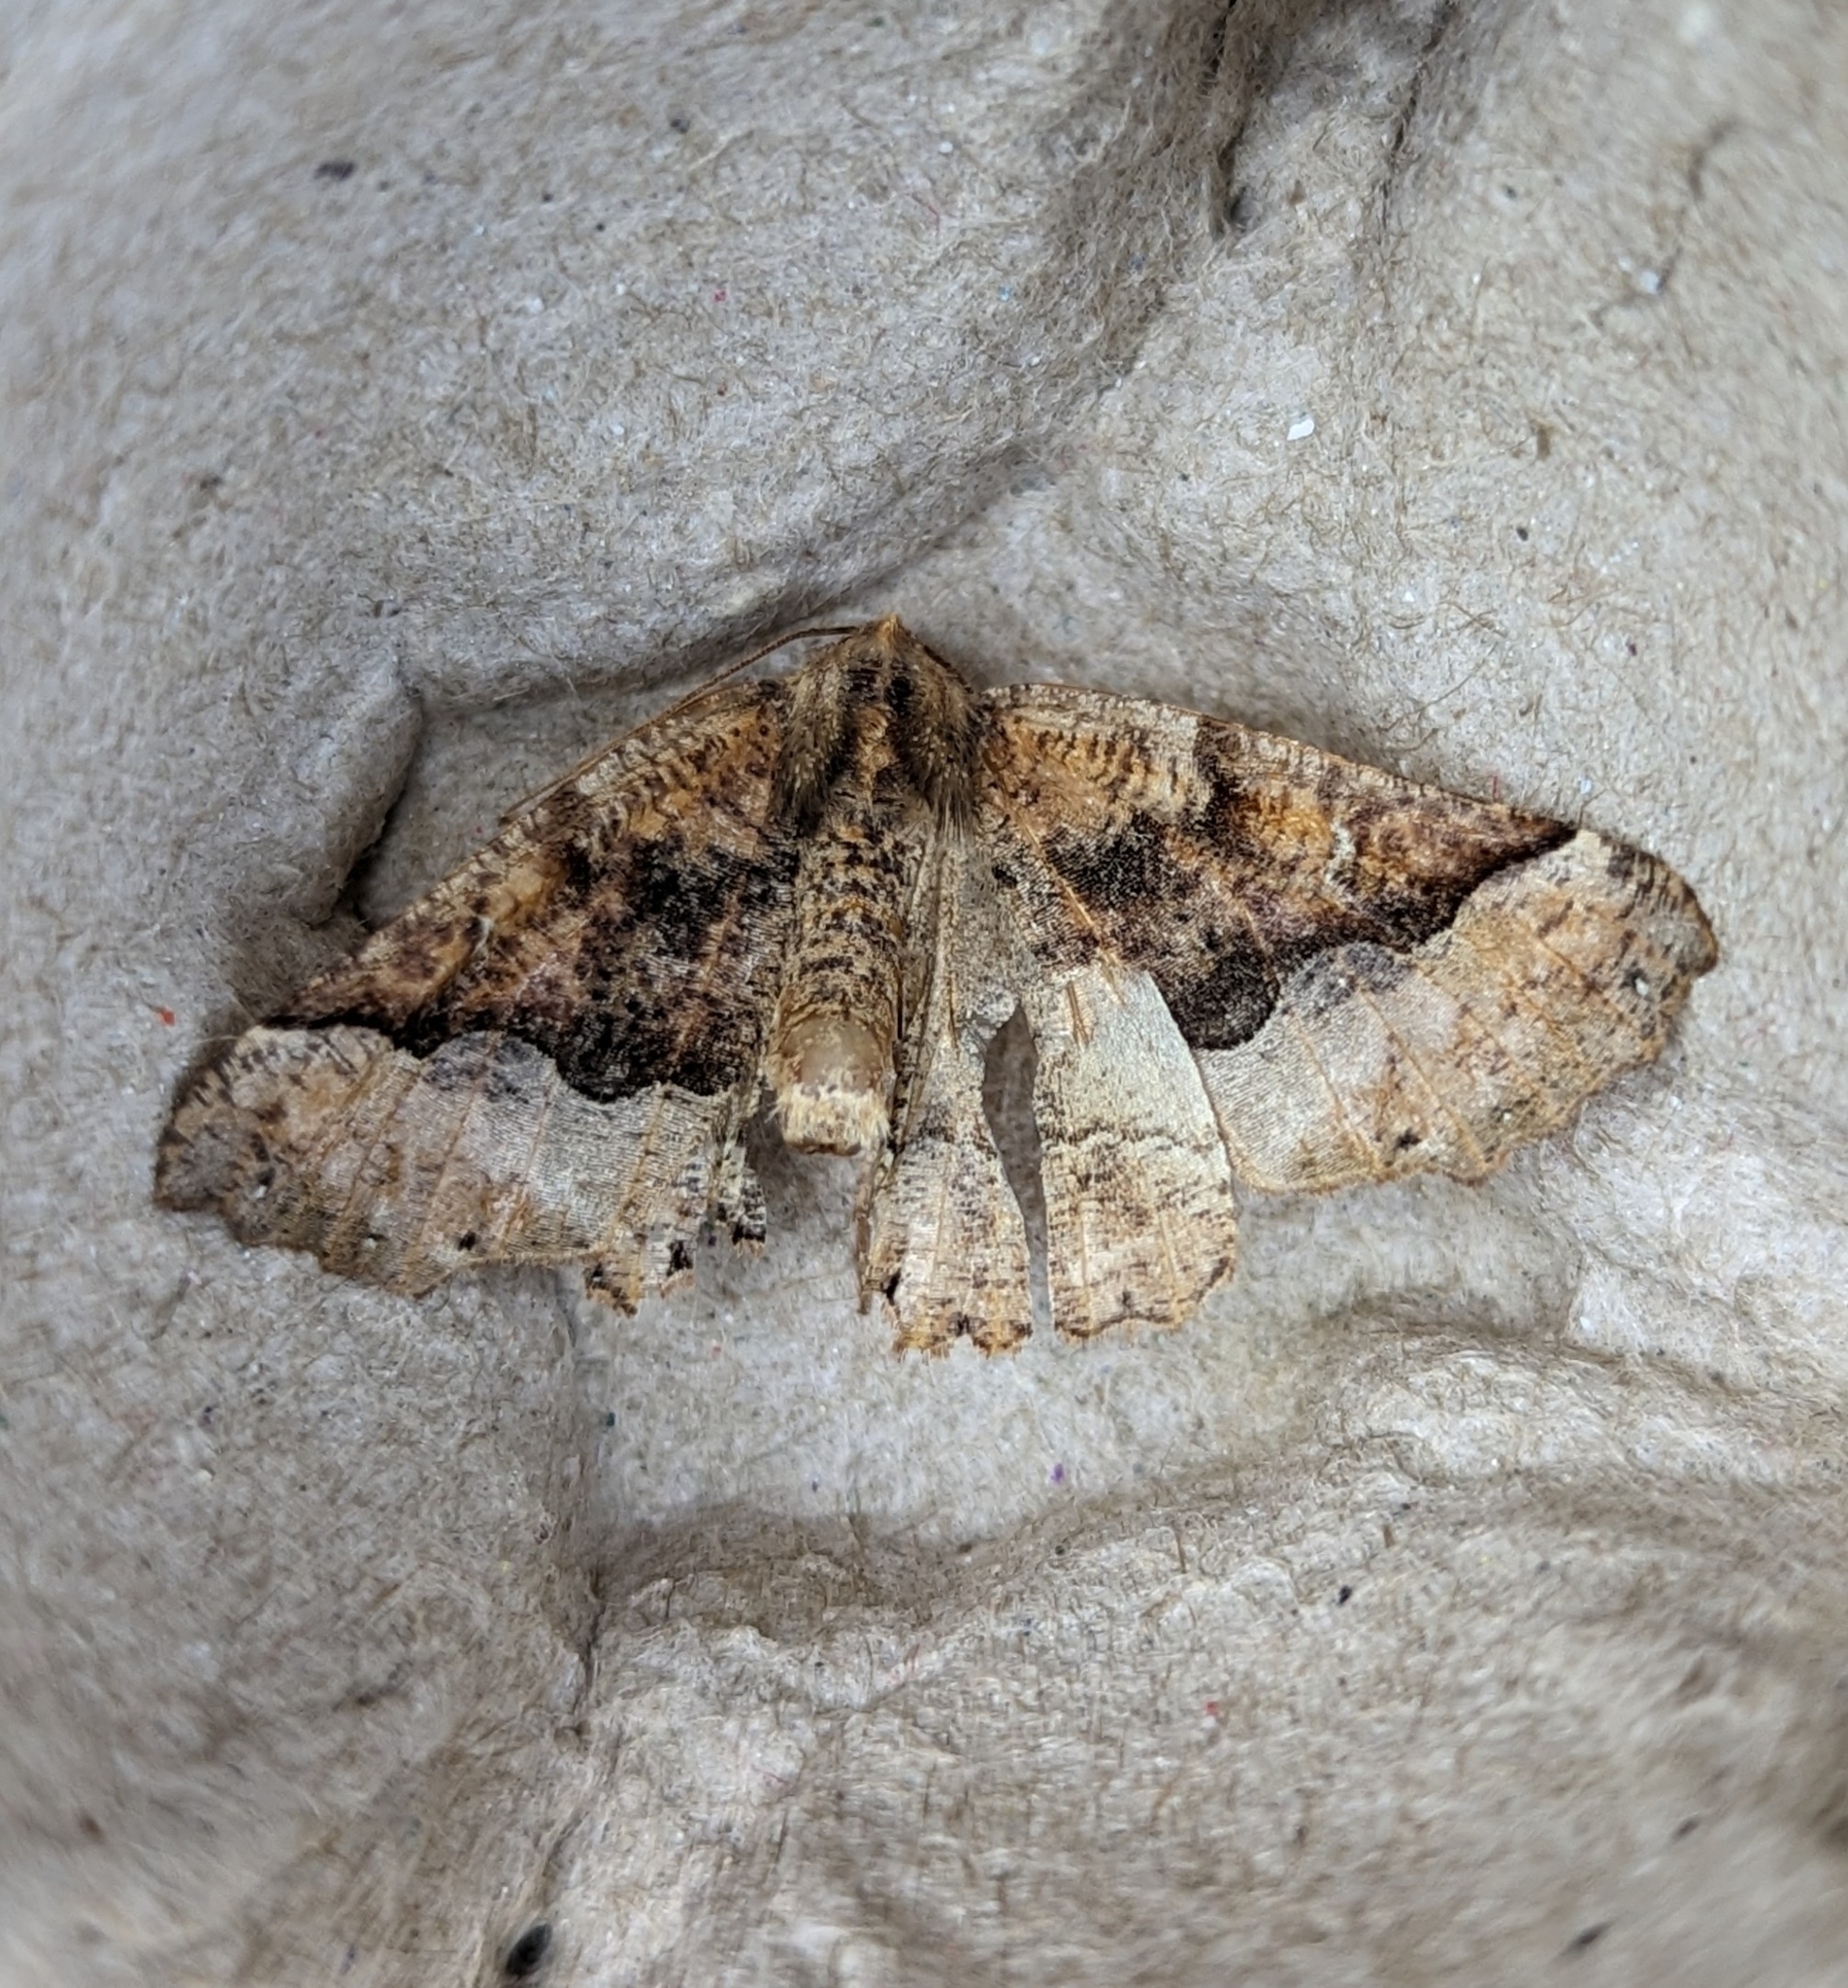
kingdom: Animalia
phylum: Arthropoda
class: Insecta
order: Lepidoptera
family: Geometridae
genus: Pero
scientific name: Pero morrisonaria
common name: Morrison's pero
